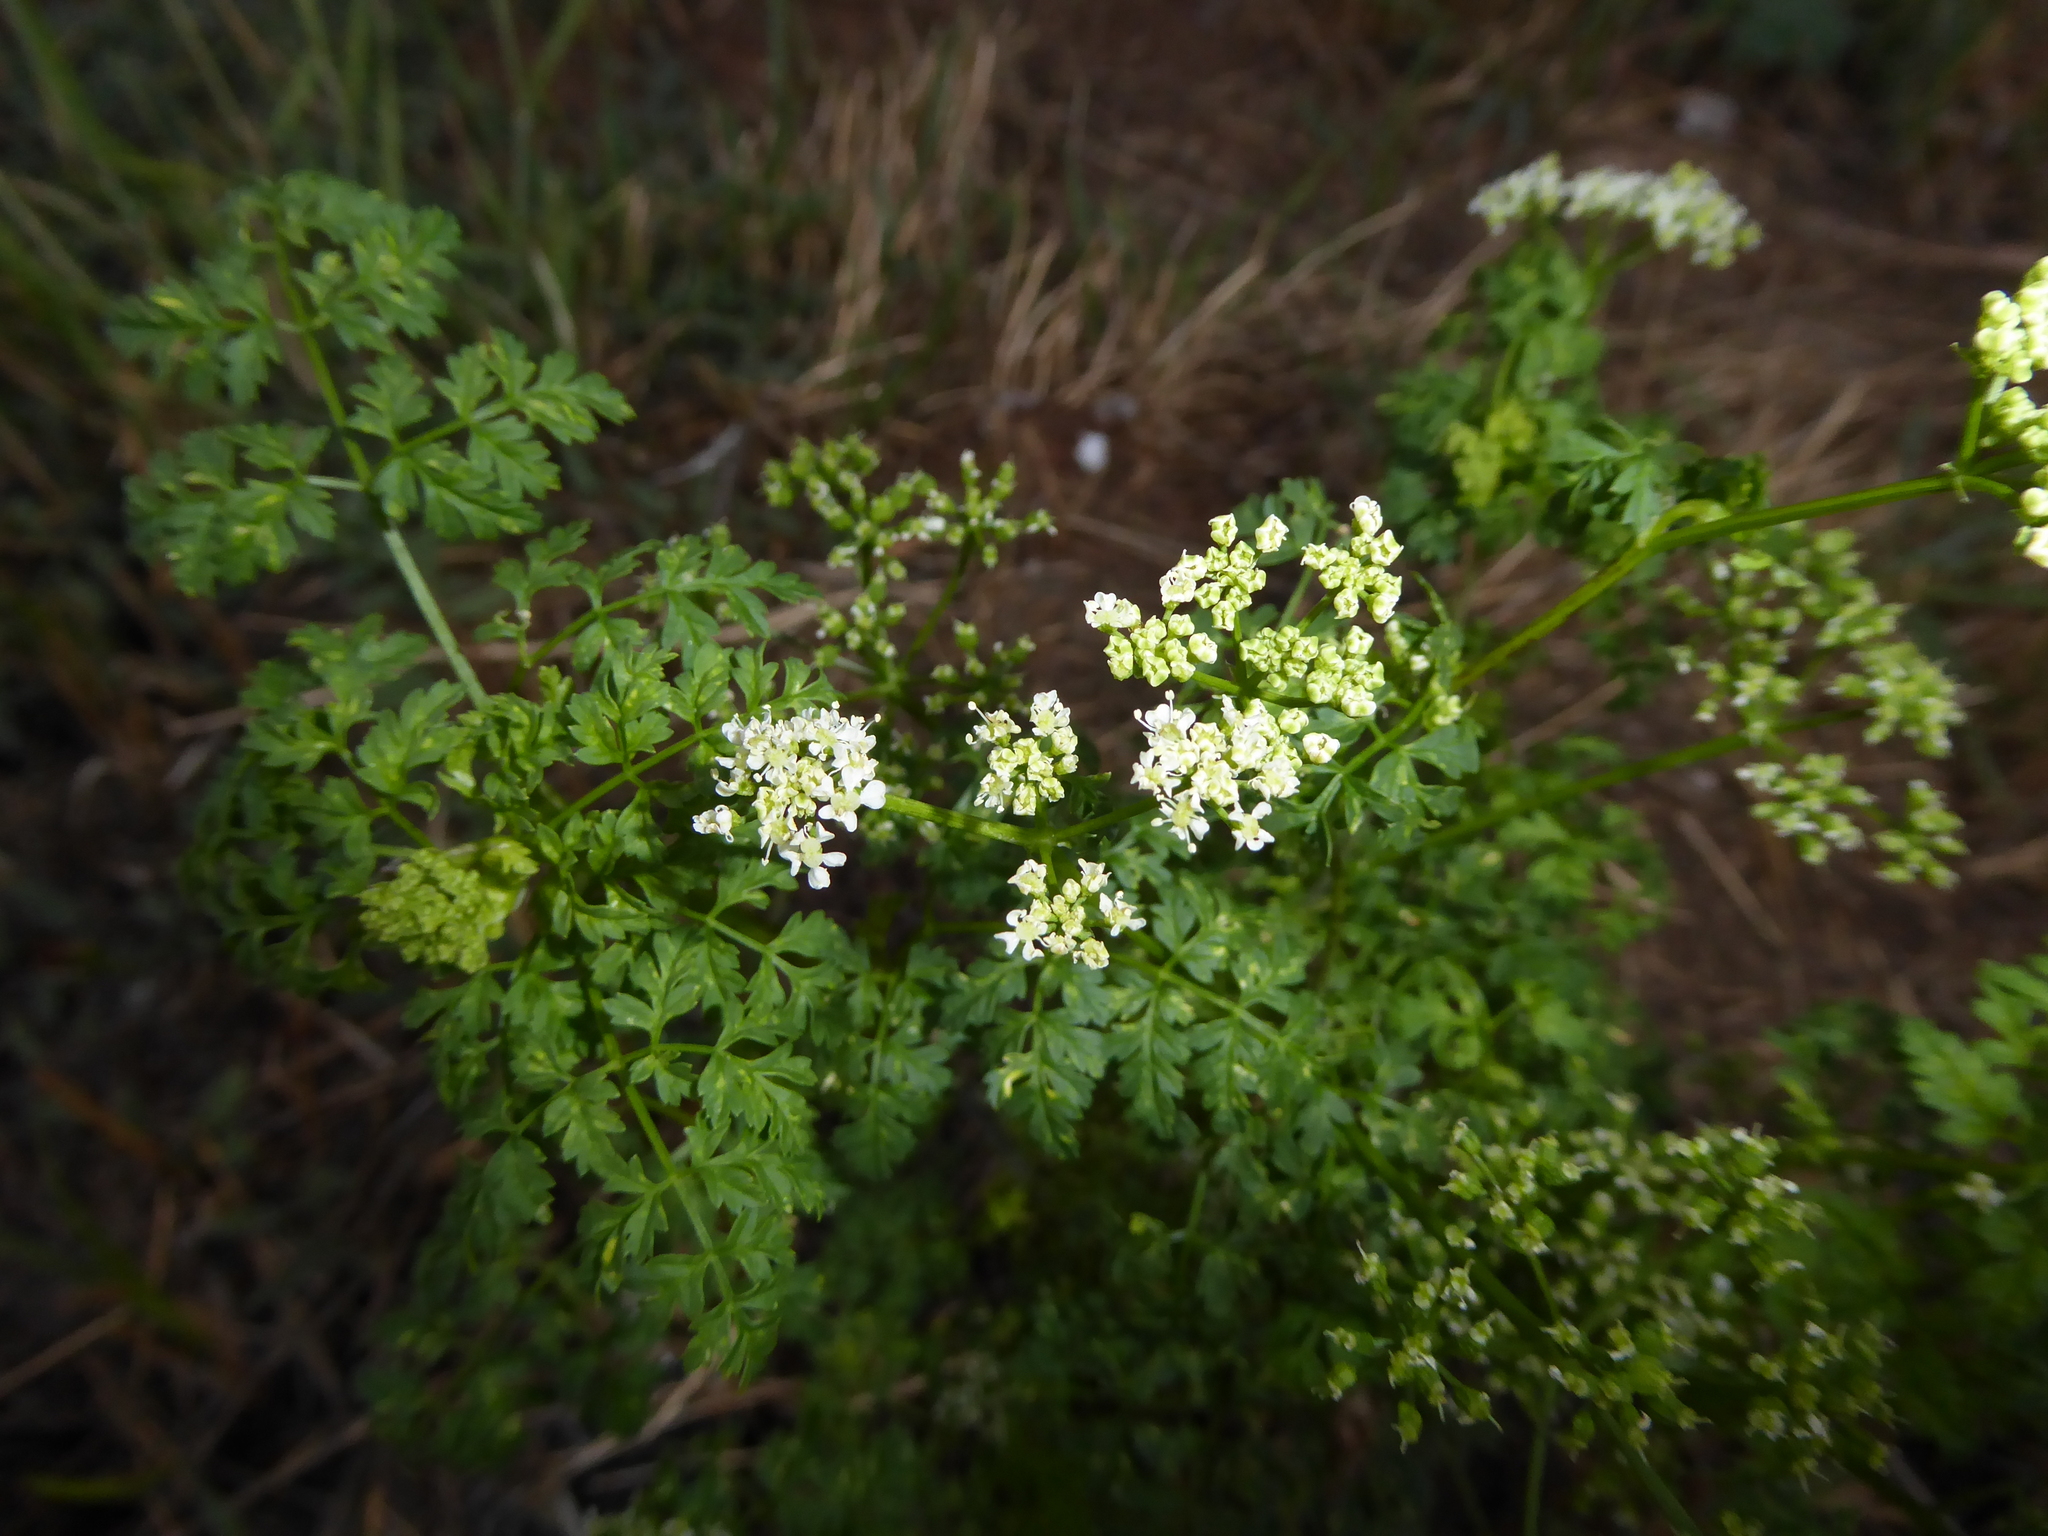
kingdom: Plantae
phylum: Tracheophyta
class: Magnoliopsida
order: Apiales
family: Apiaceae
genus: Conium
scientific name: Conium maculatum
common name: Hemlock
